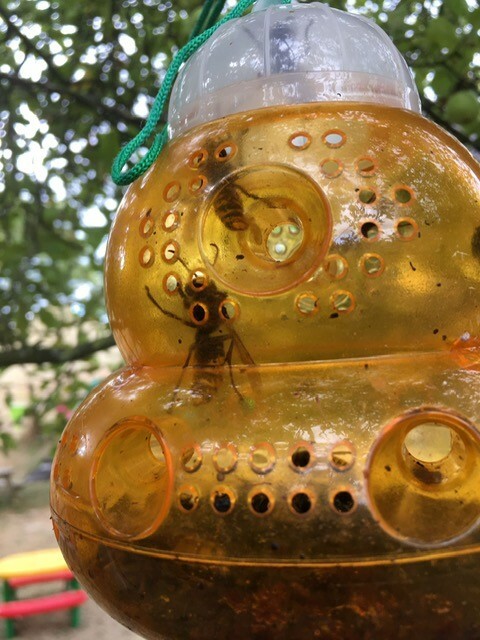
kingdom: Animalia
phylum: Arthropoda
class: Insecta
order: Hymenoptera
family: Vespidae
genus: Vespa
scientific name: Vespa crabro
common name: Hornet
